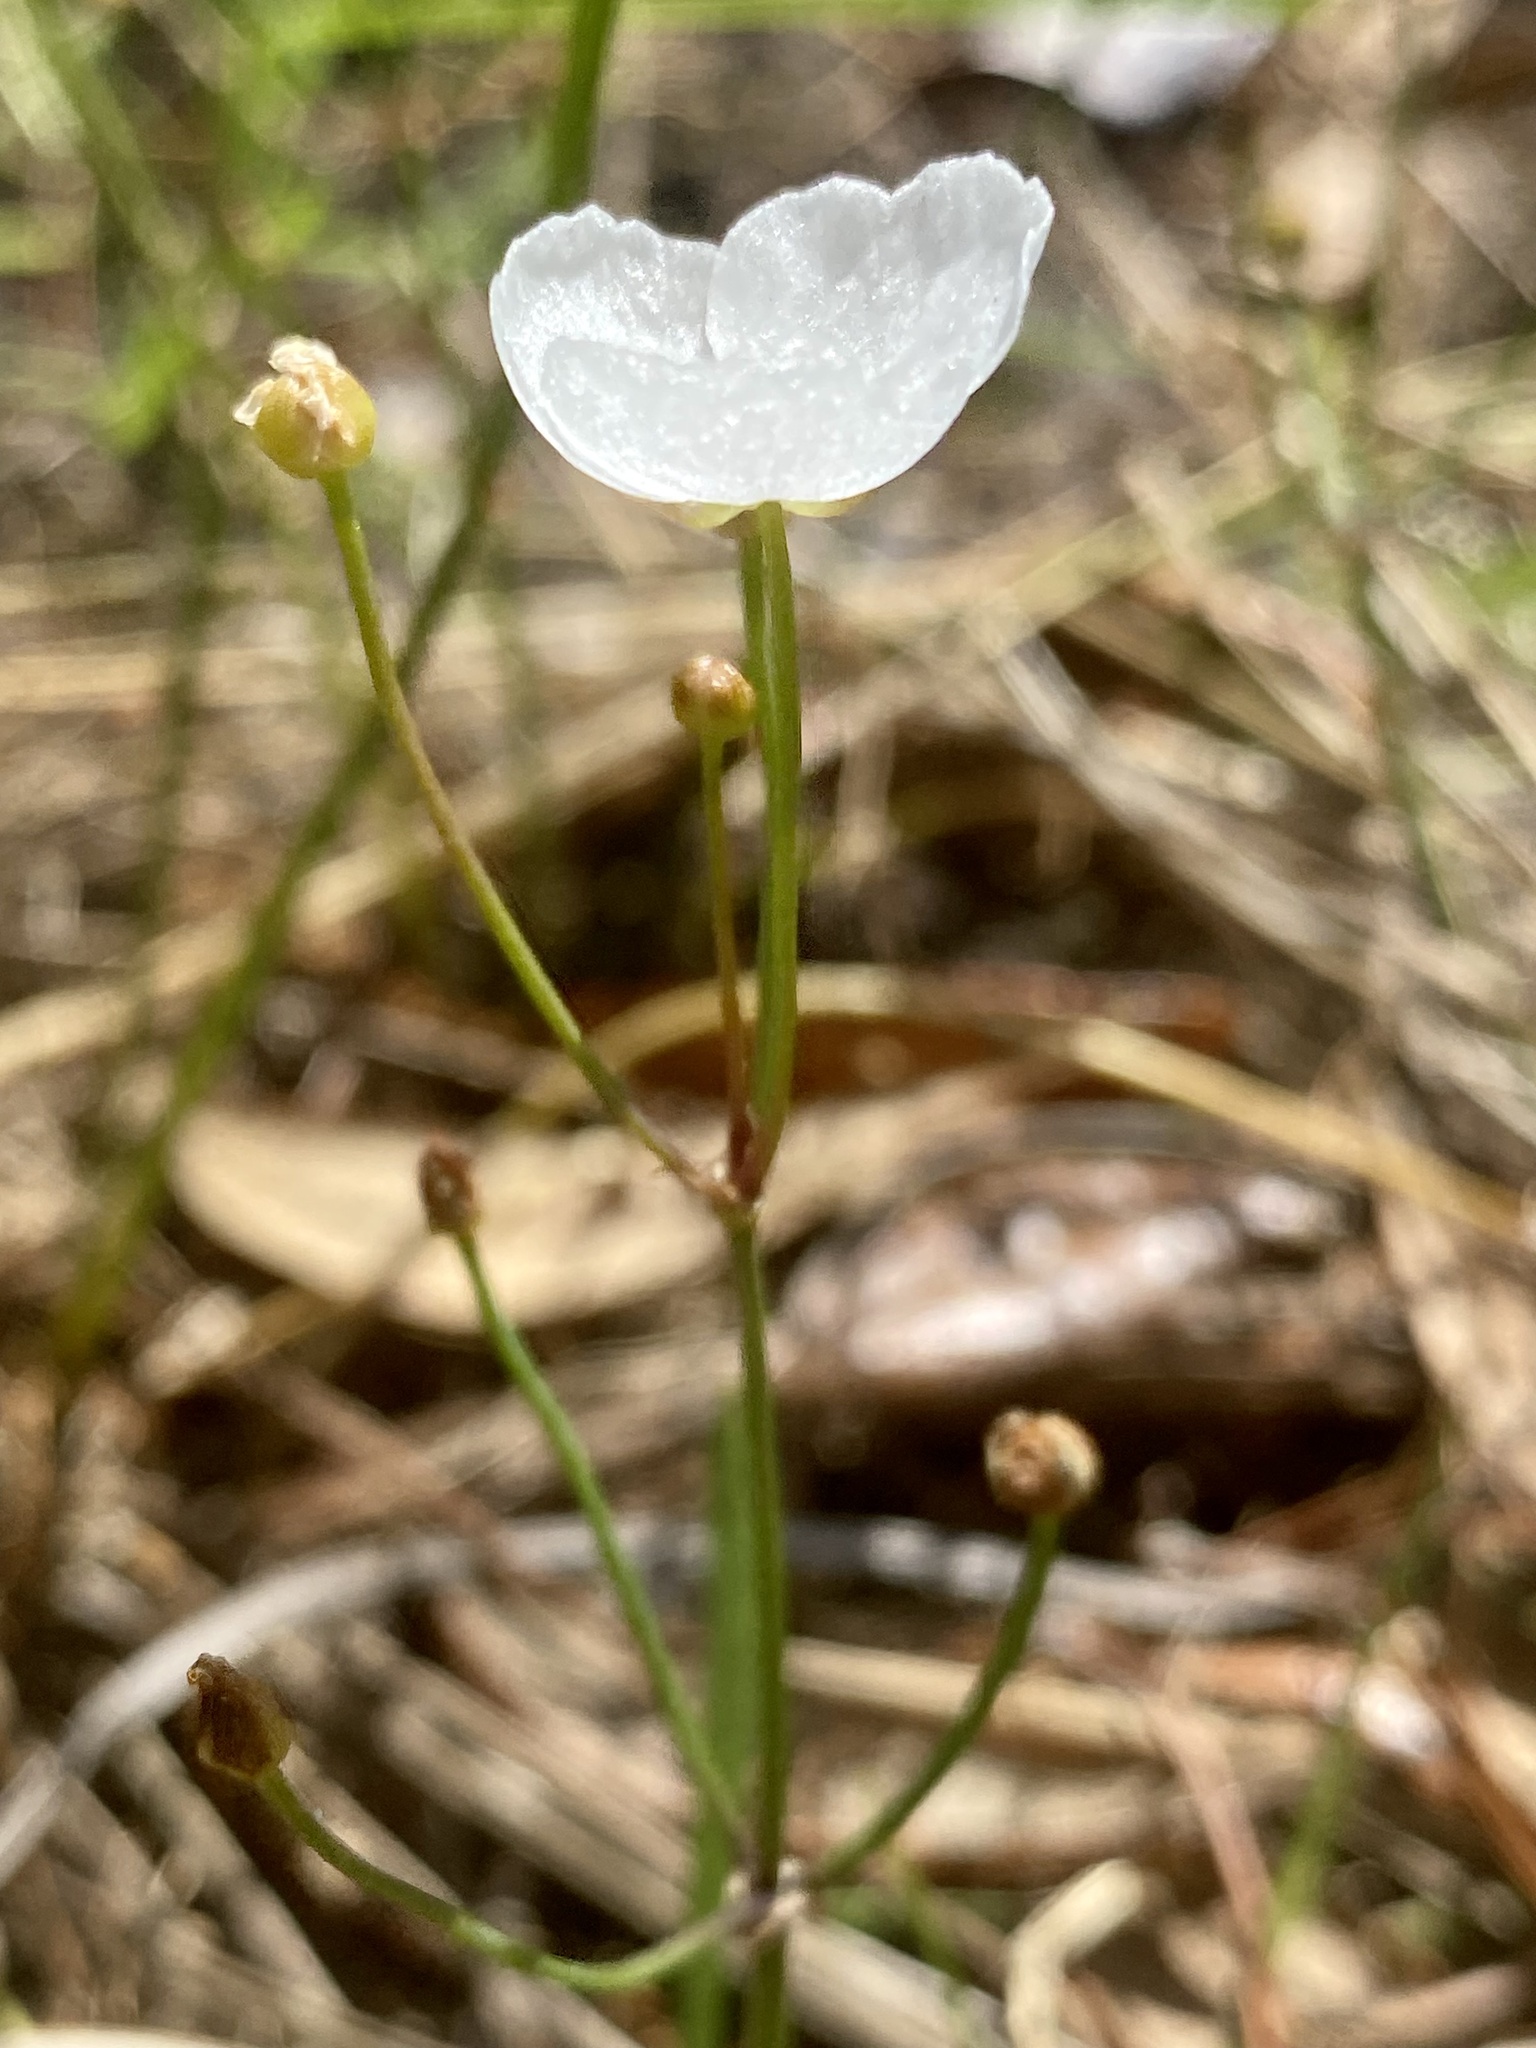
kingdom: Plantae
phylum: Tracheophyta
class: Liliopsida
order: Alismatales
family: Alismataceae
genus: Sagittaria
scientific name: Sagittaria graminea
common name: Grass-leaved arrowhead
